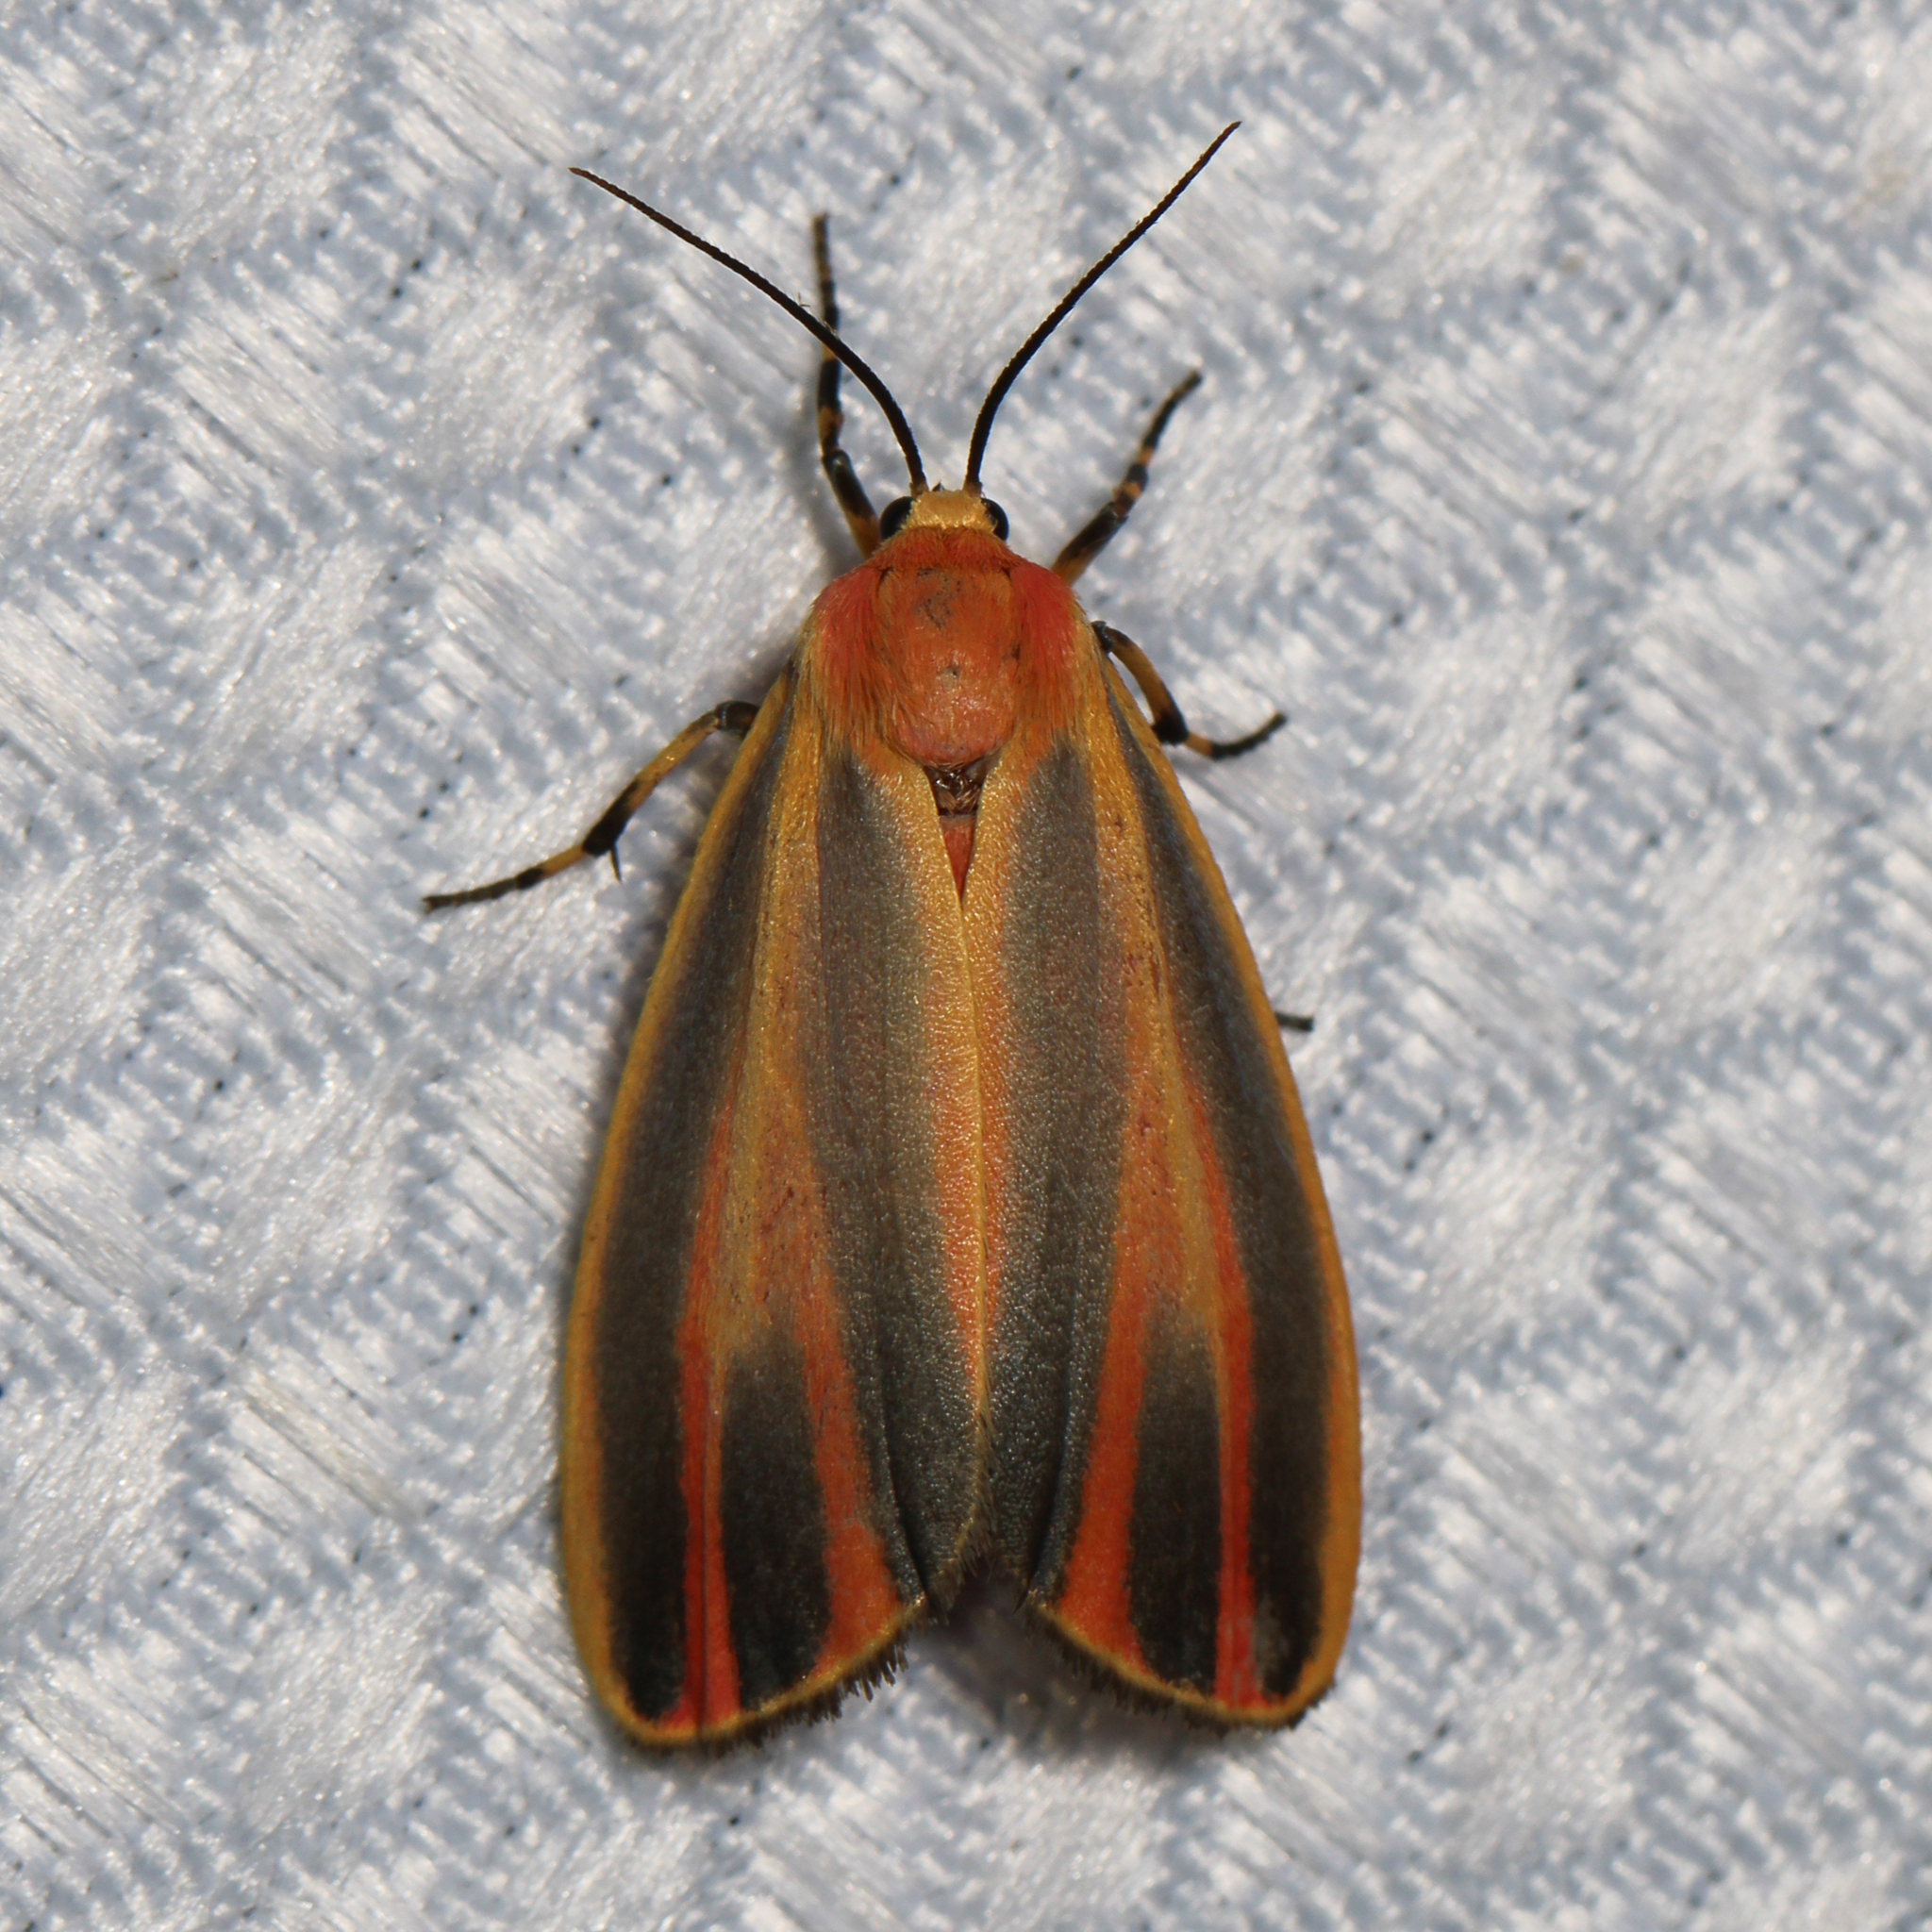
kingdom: Animalia
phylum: Arthropoda
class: Insecta
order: Lepidoptera
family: Erebidae
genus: Hypoprepia
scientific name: Hypoprepia fucosa
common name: Painted lichen moth
